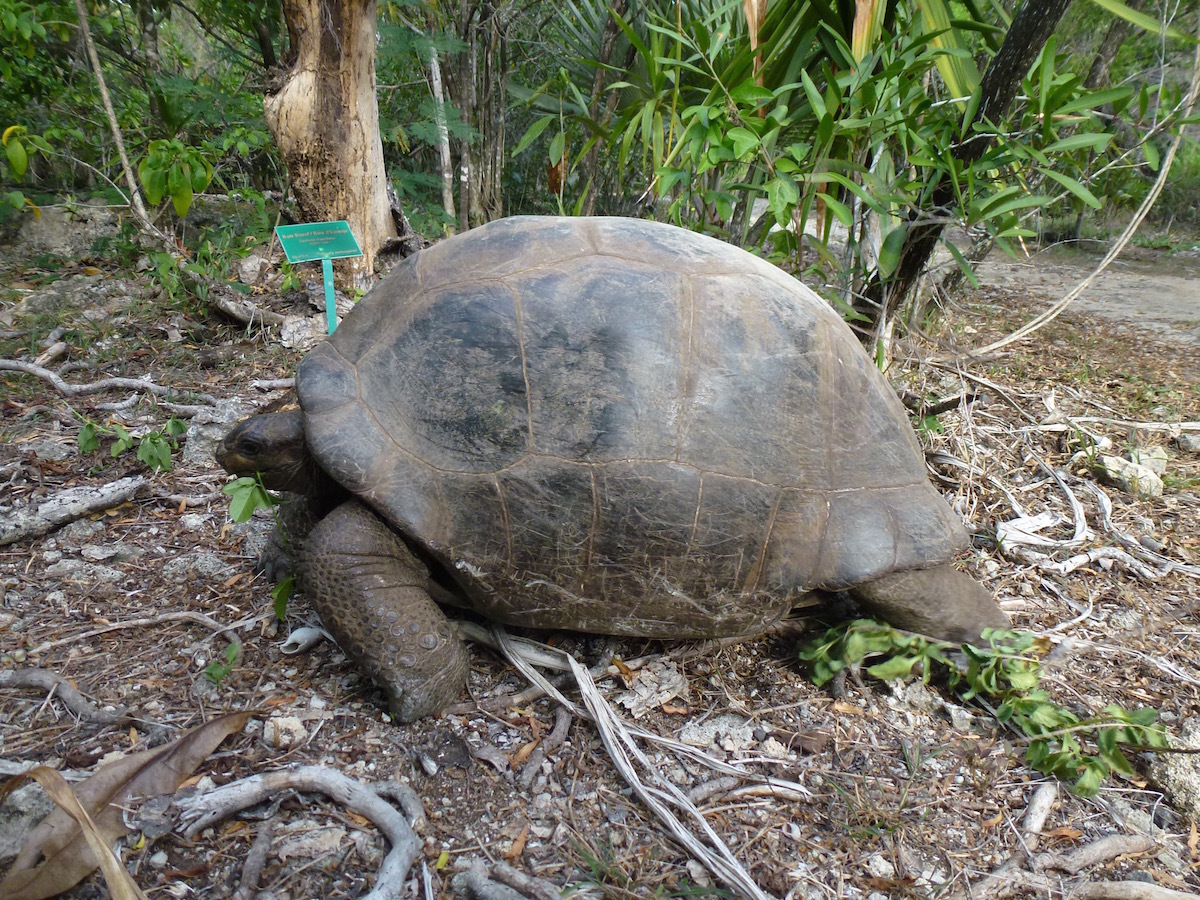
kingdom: Animalia
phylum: Chordata
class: Testudines
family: Testudinidae
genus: Aldabrachelys
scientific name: Aldabrachelys gigantea
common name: Aldabra giant tortoise
